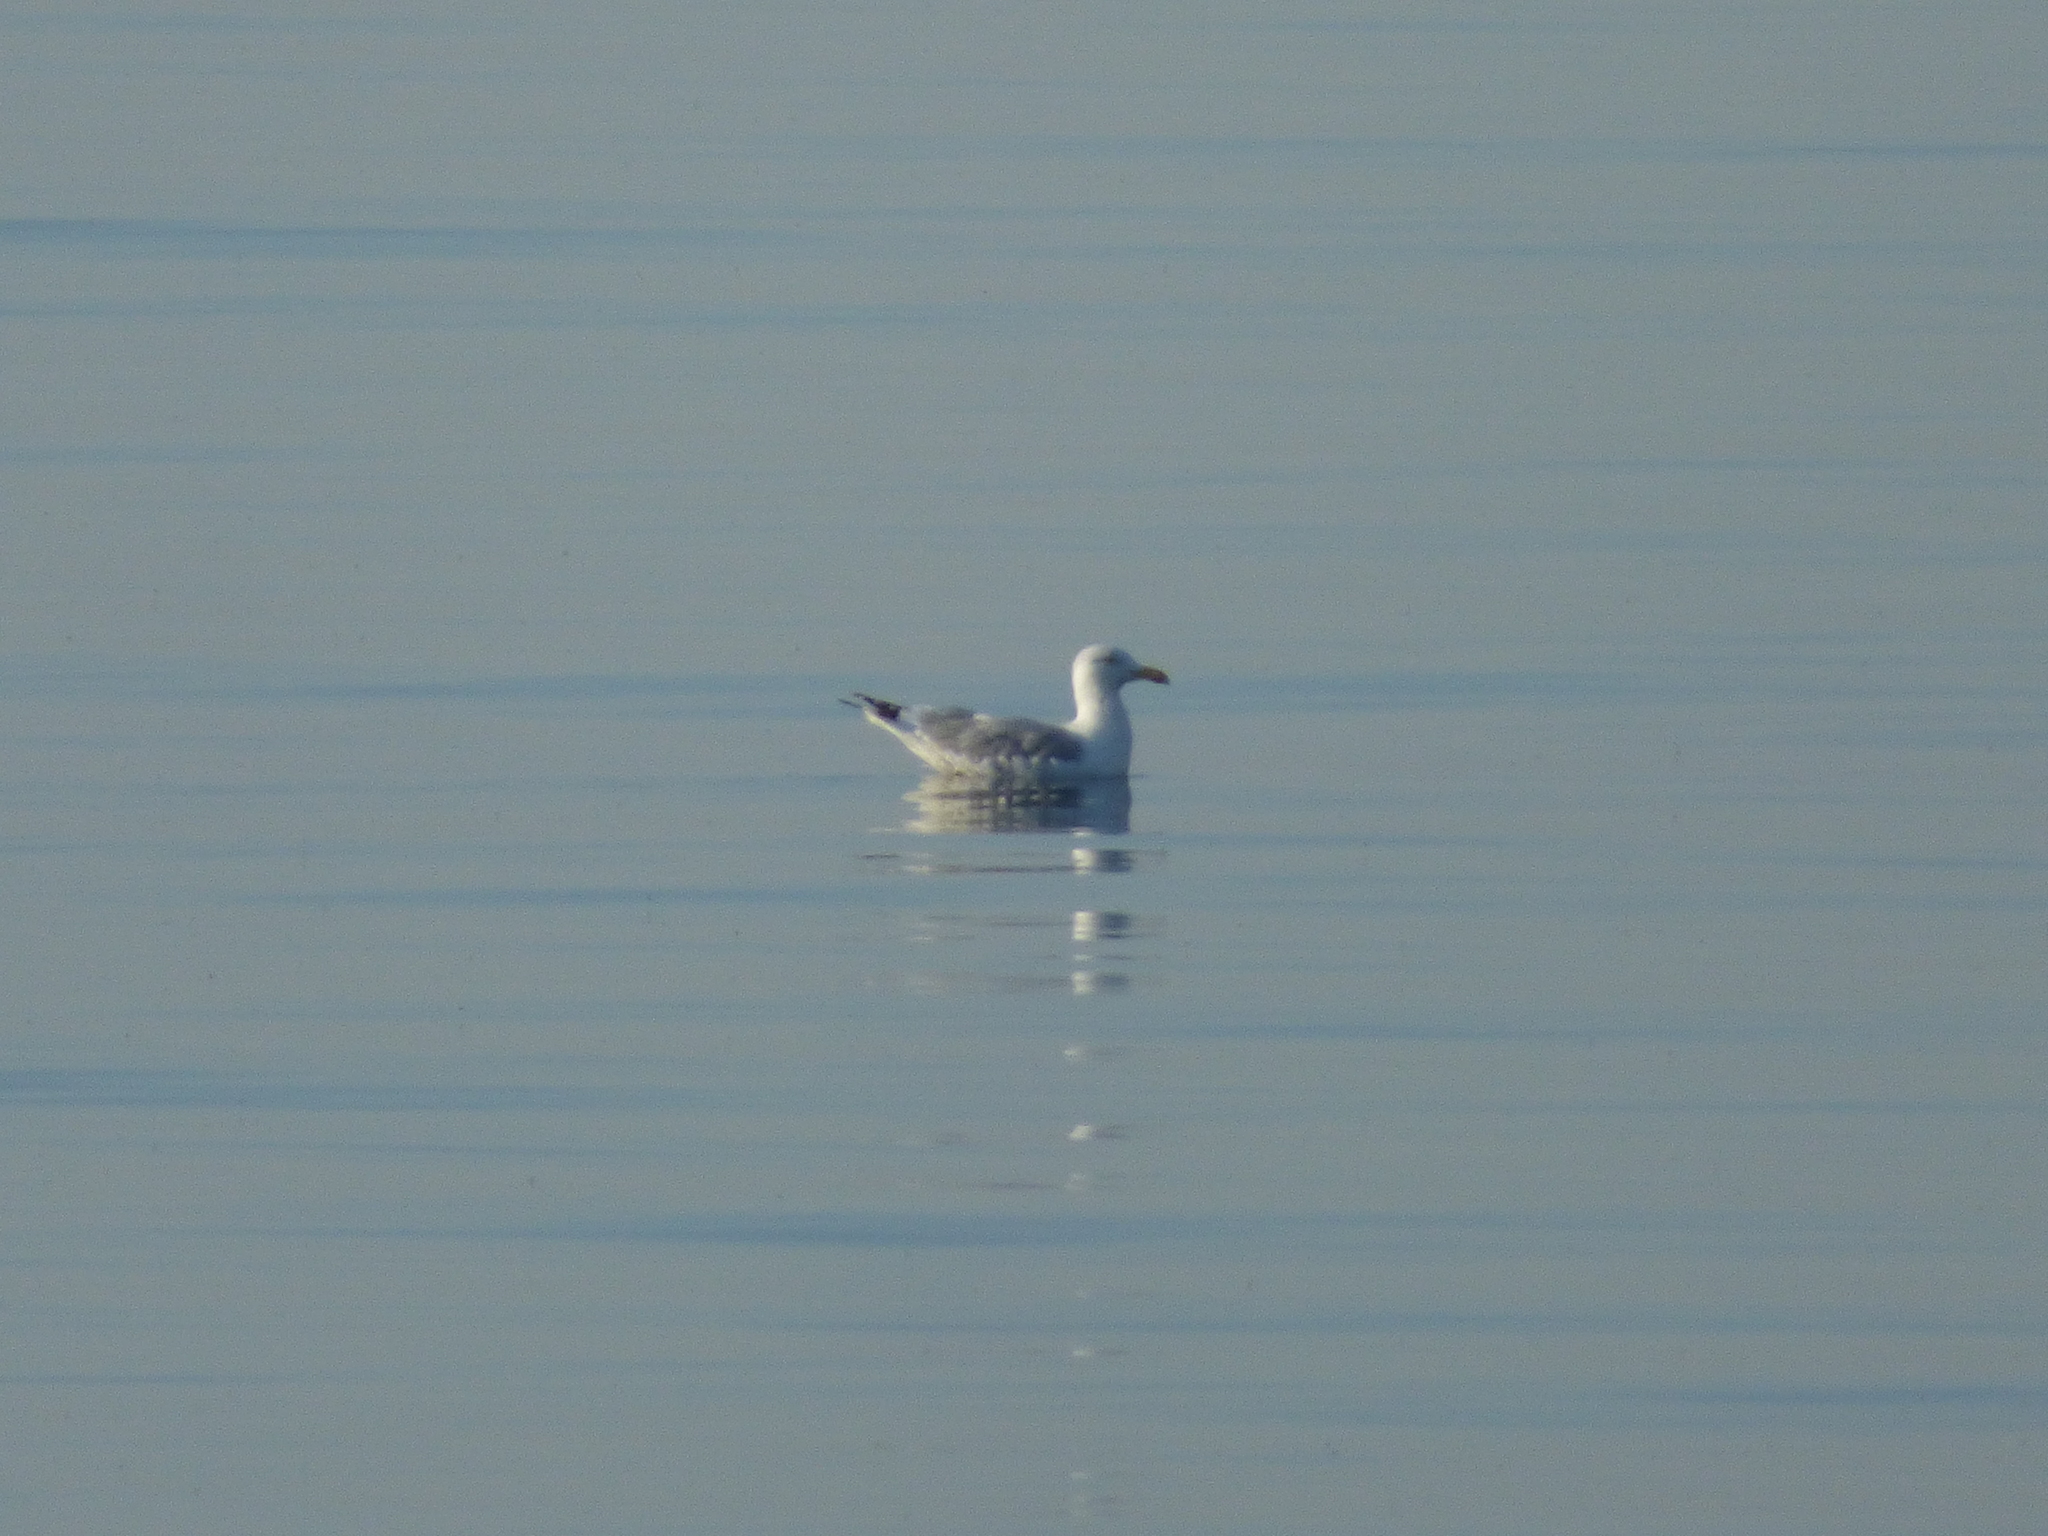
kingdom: Animalia
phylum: Chordata
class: Aves
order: Charadriiformes
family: Laridae
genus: Larus
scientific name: Larus argentatus
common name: Herring gull
